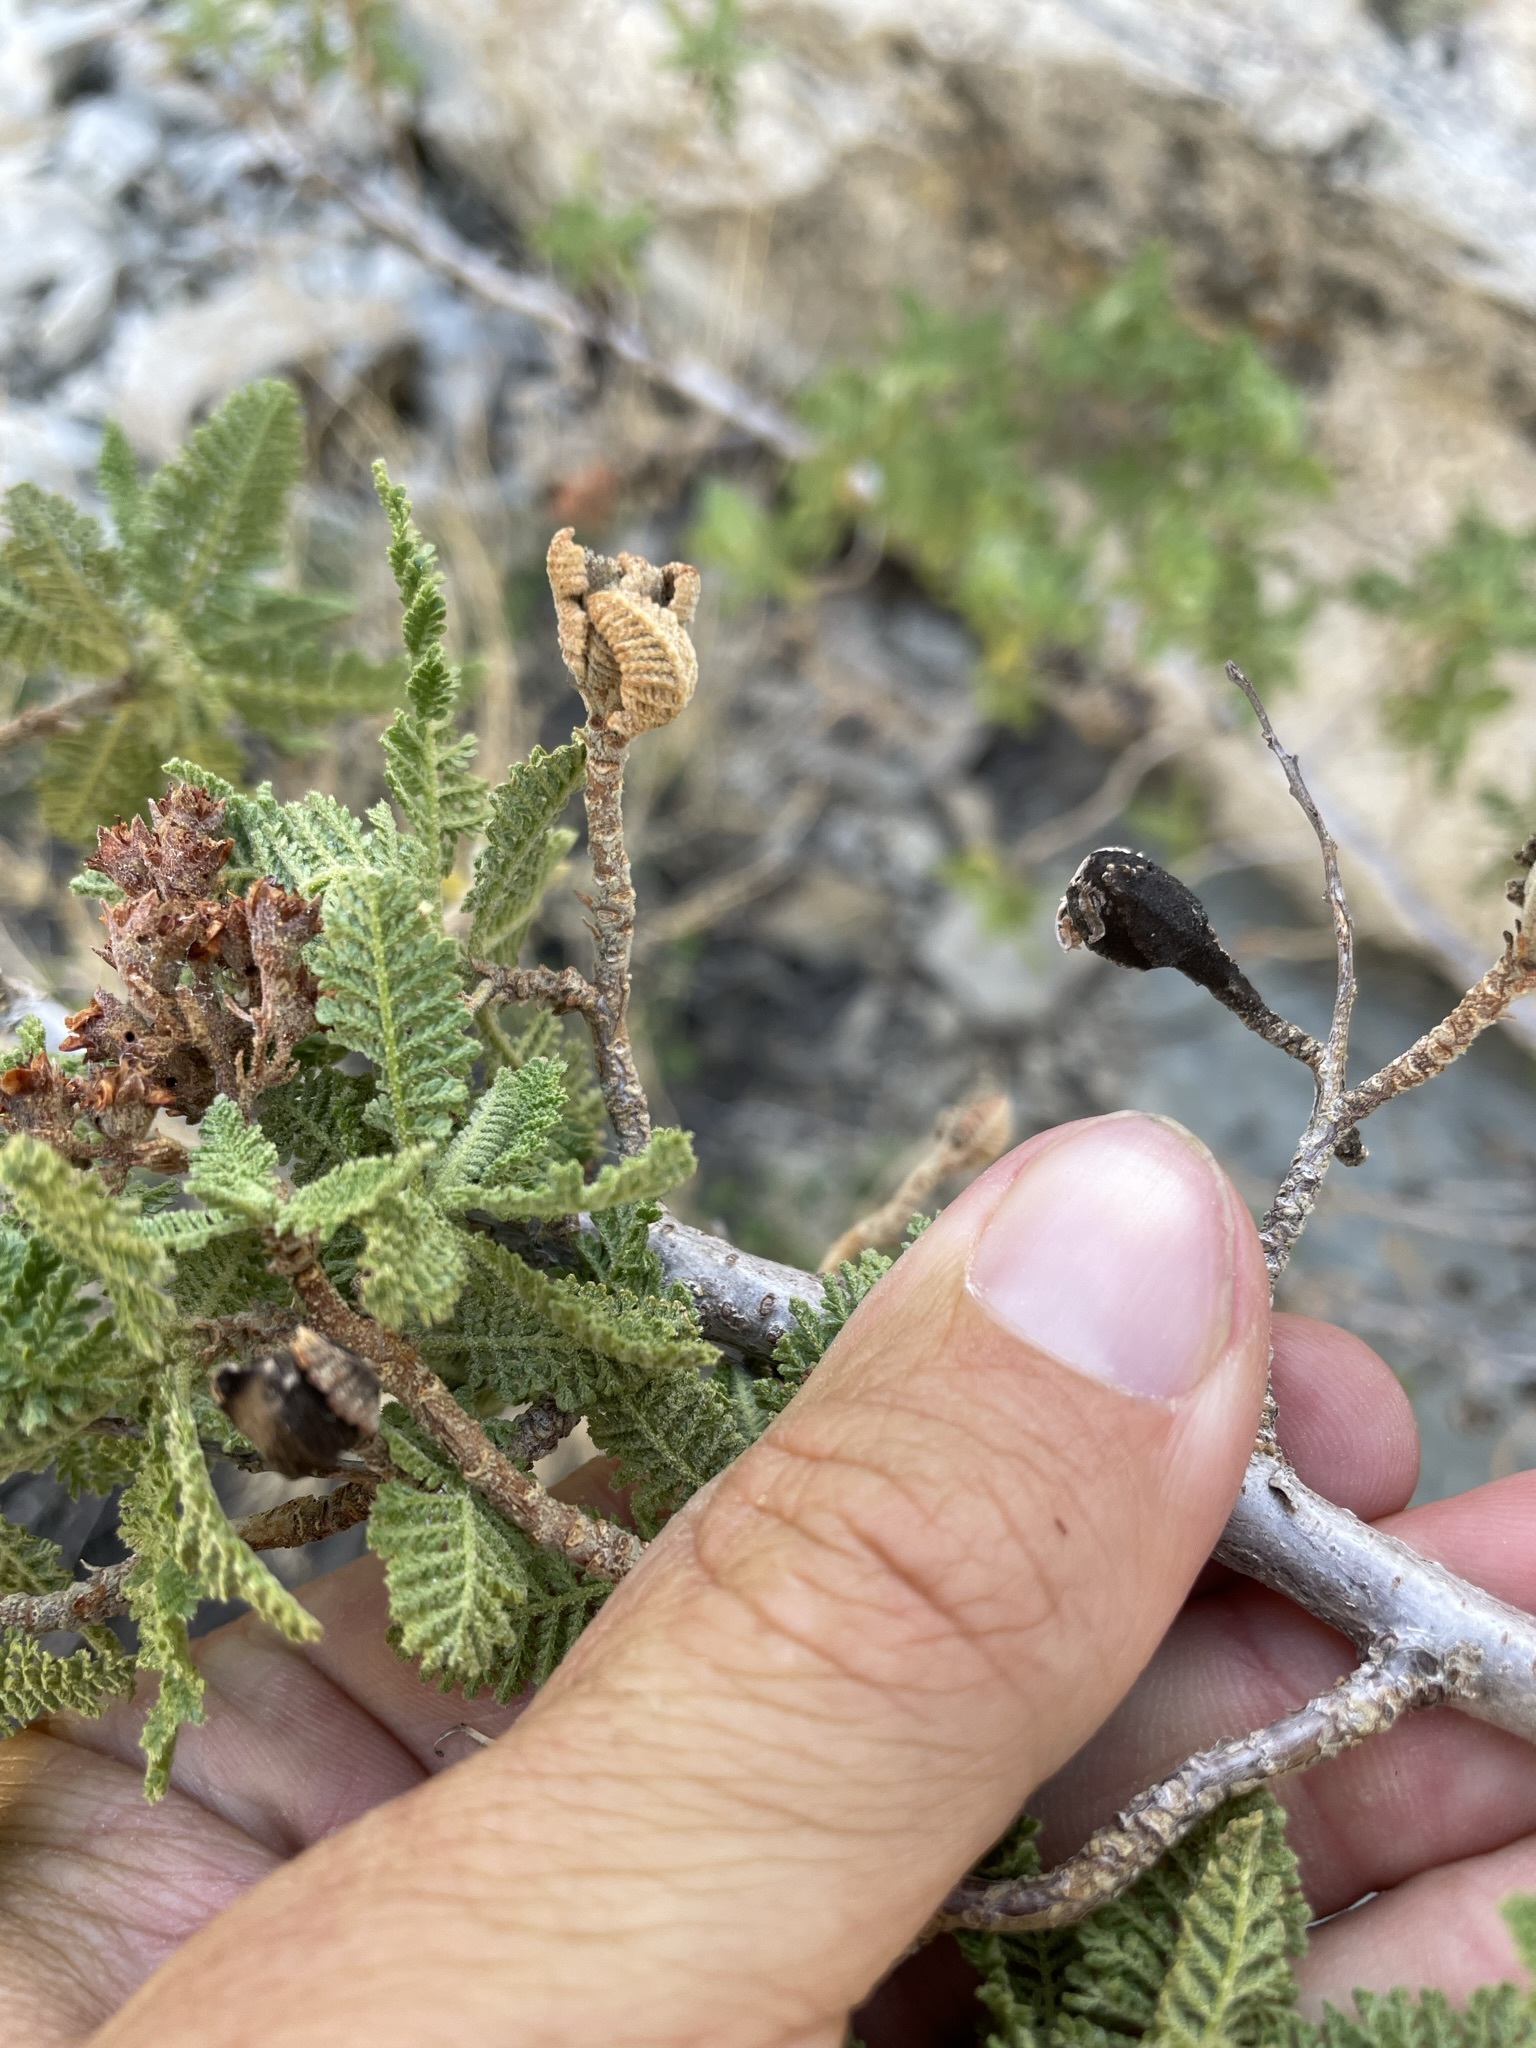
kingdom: Plantae
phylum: Tracheophyta
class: Magnoliopsida
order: Rosales
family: Rosaceae
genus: Chamaebatiaria
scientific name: Chamaebatiaria millefolium
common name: Fernbush
